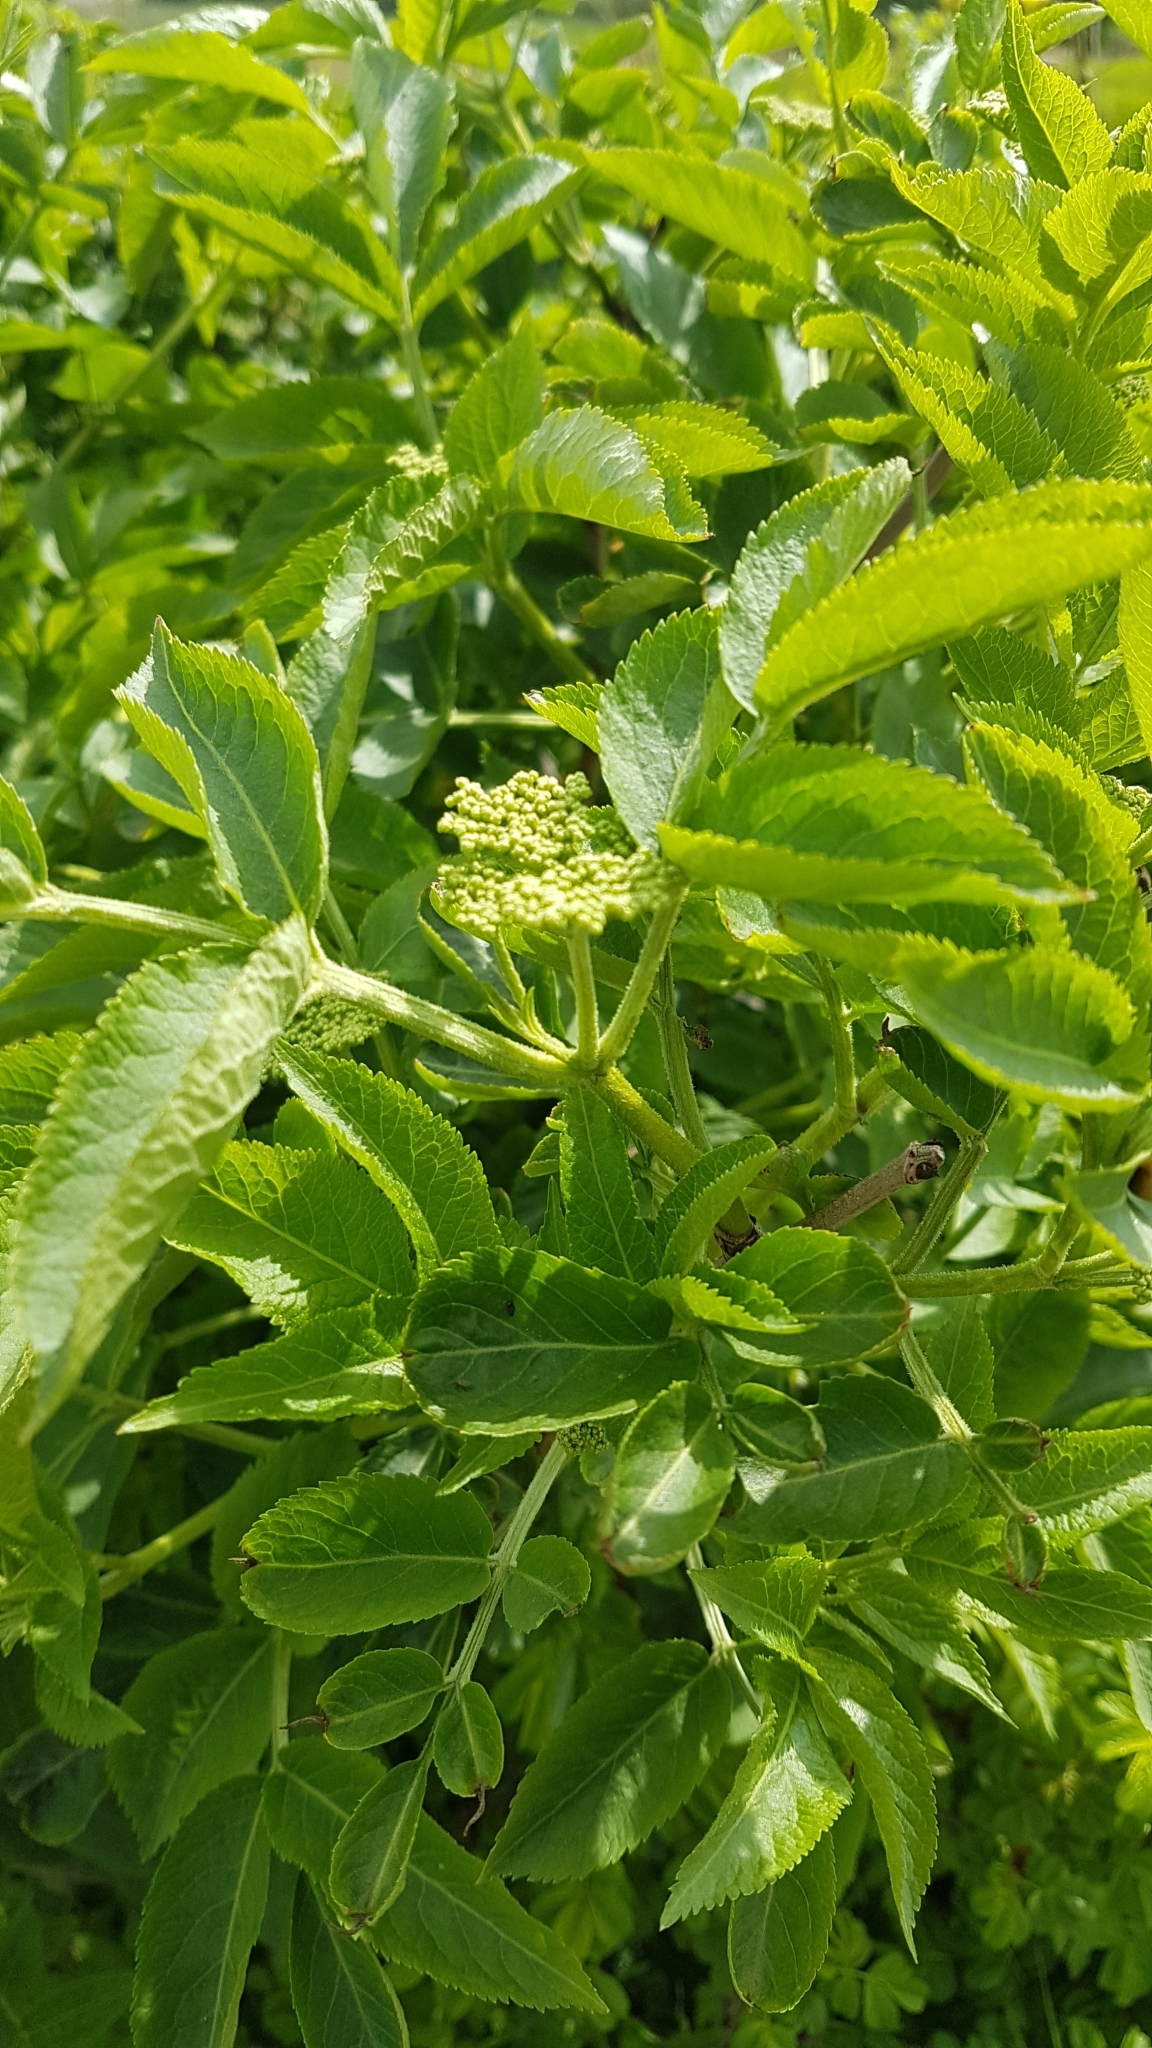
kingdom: Plantae
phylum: Tracheophyta
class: Magnoliopsida
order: Dipsacales
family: Viburnaceae
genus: Sambucus
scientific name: Sambucus nigra
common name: Elder
